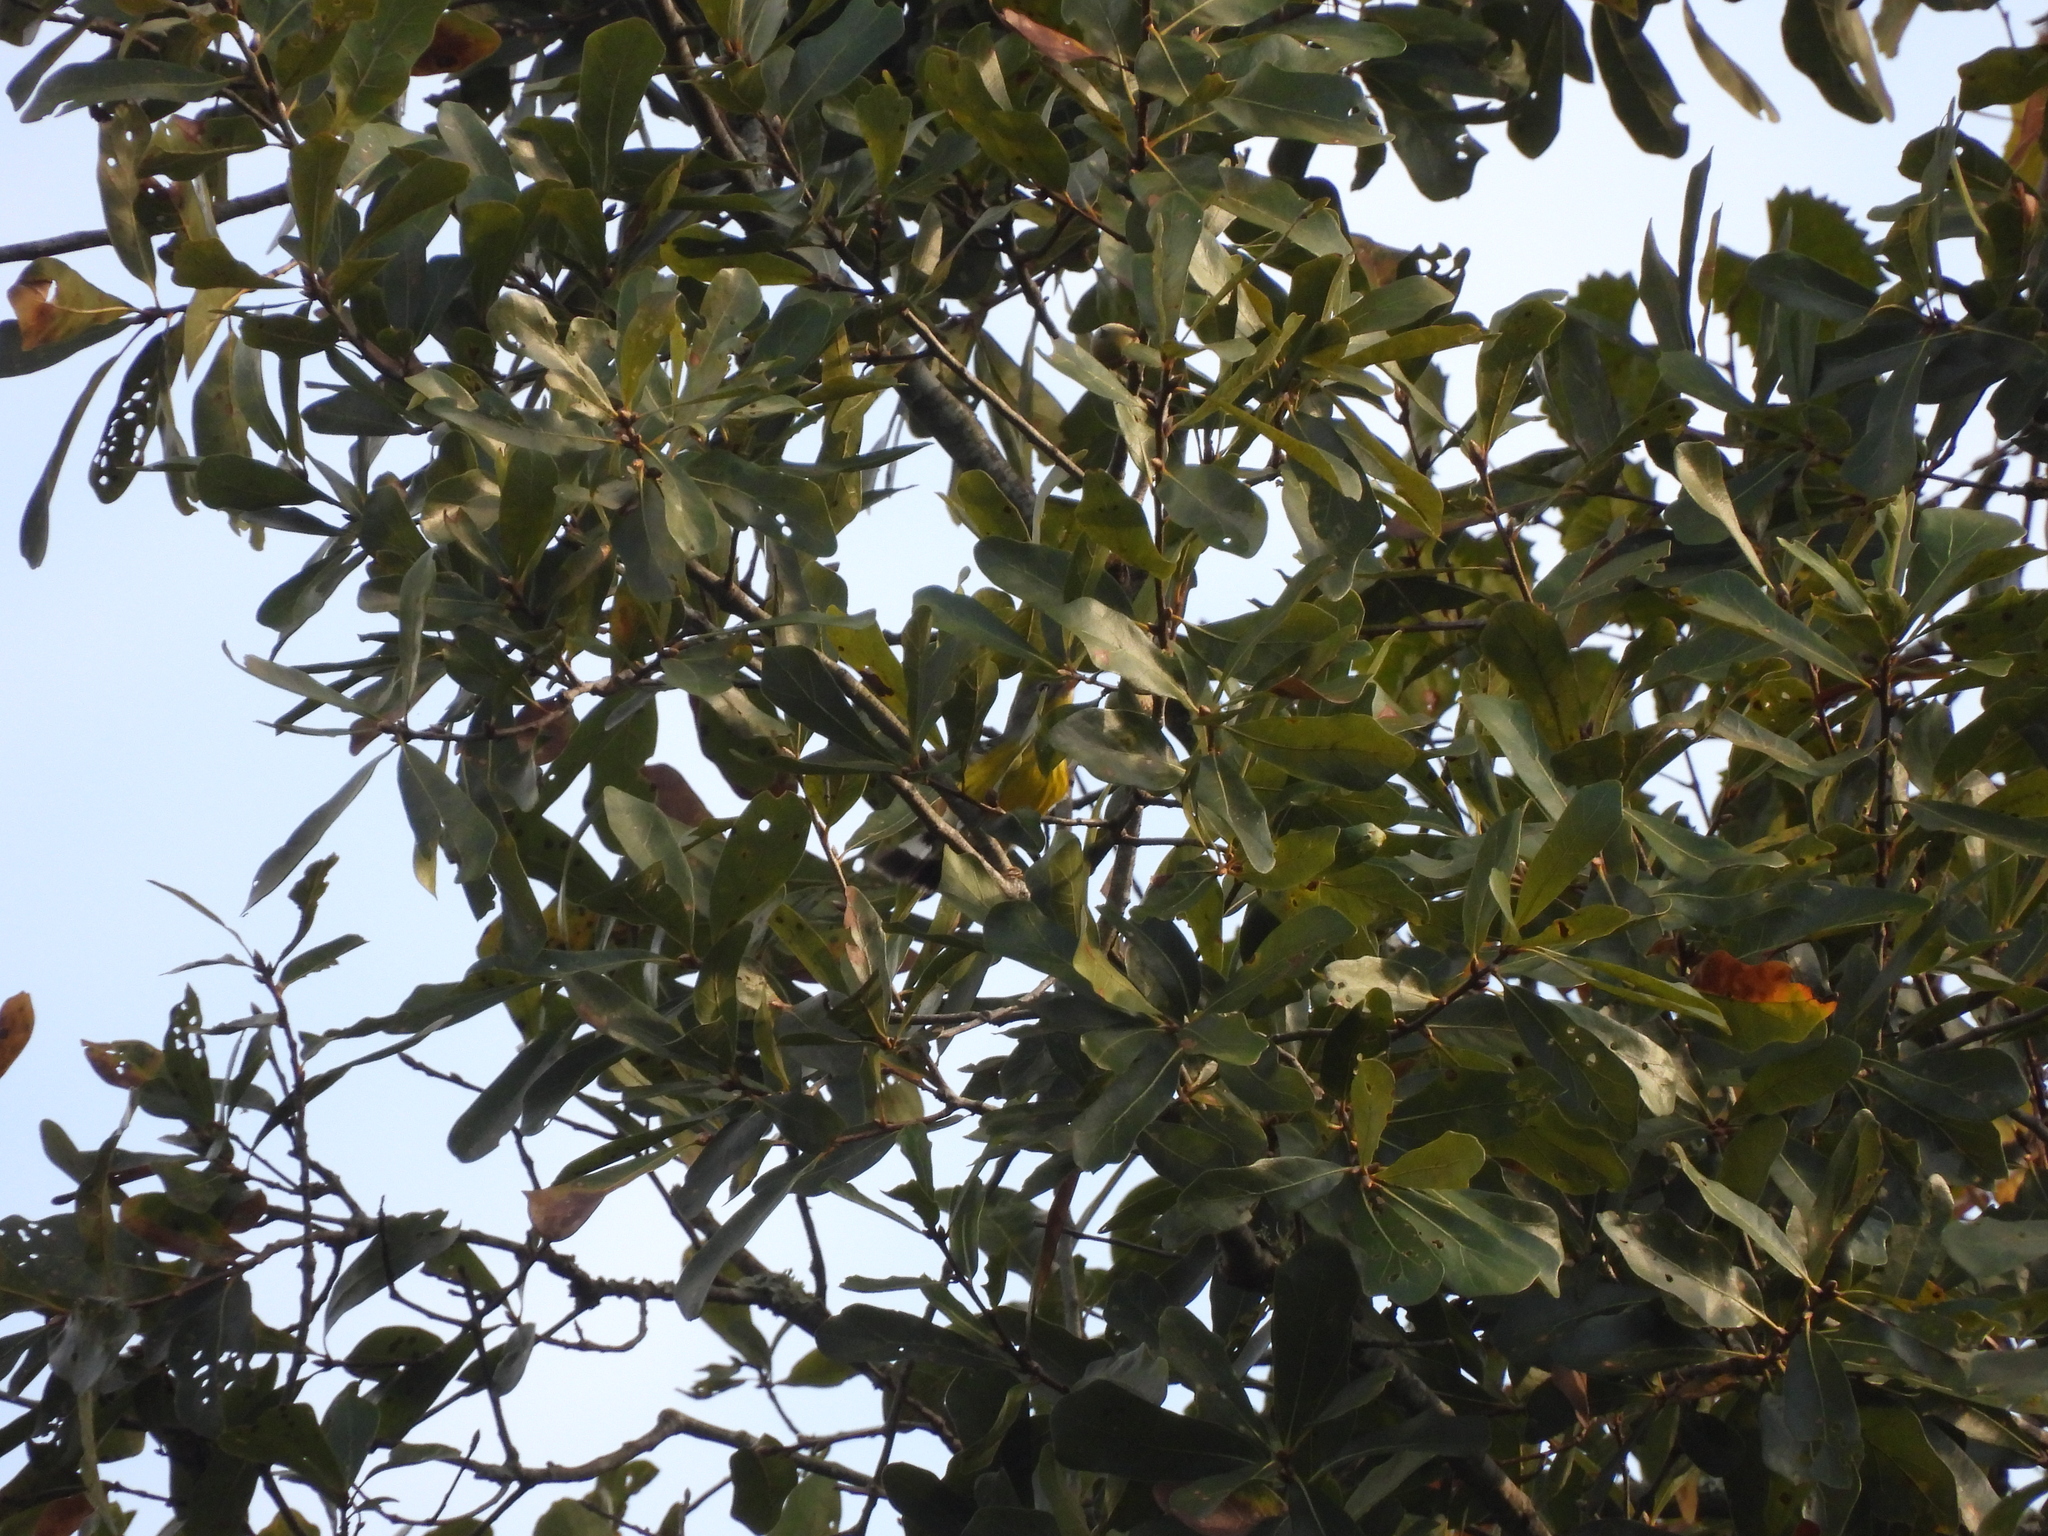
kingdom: Animalia
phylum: Chordata
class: Aves
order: Passeriformes
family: Parulidae
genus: Setophaga
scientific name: Setophaga magnolia
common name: Magnolia warbler
